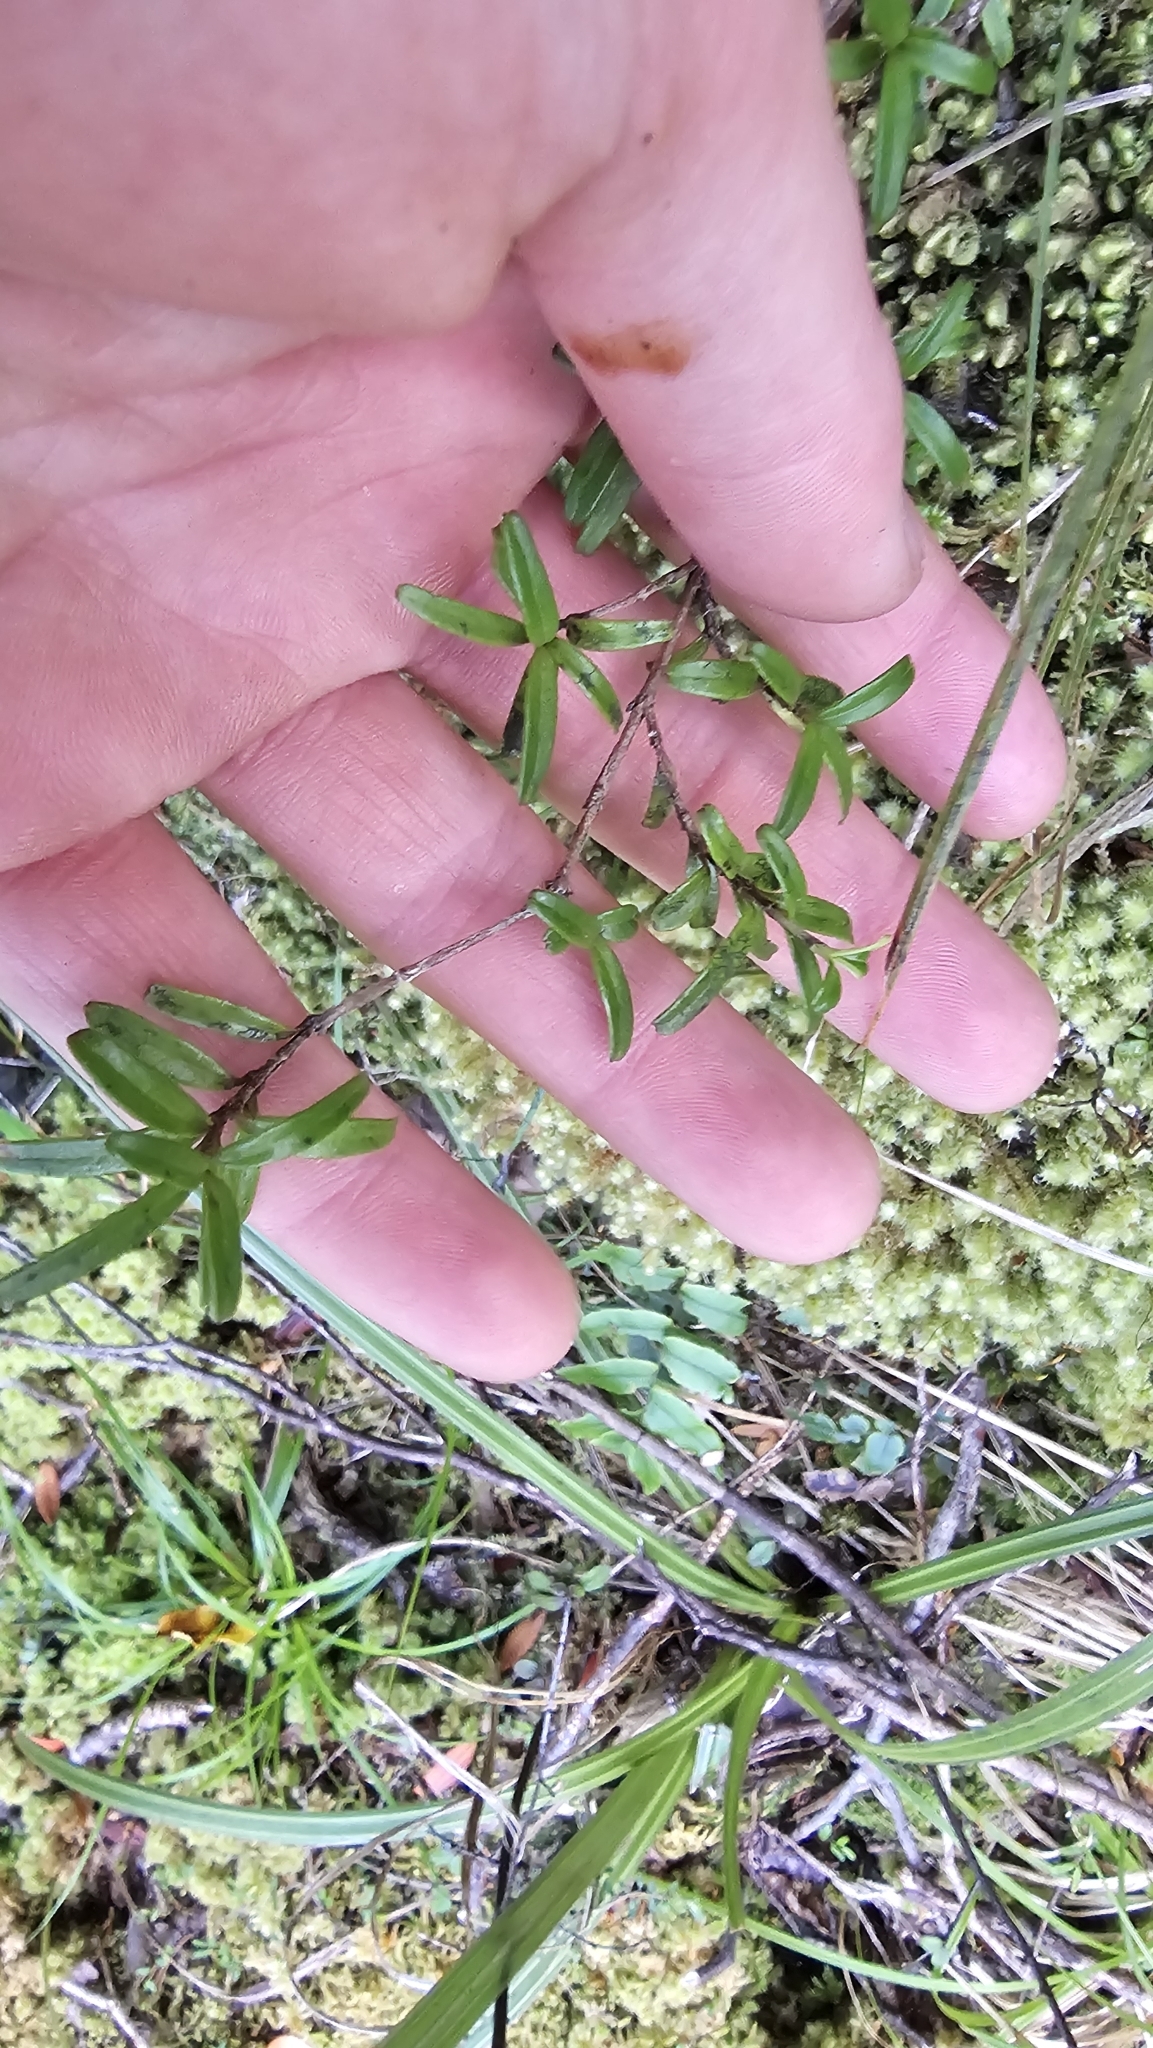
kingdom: Plantae
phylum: Tracheophyta
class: Magnoliopsida
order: Gentianales
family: Rubiaceae
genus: Coprosma
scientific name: Coprosma colensoi
